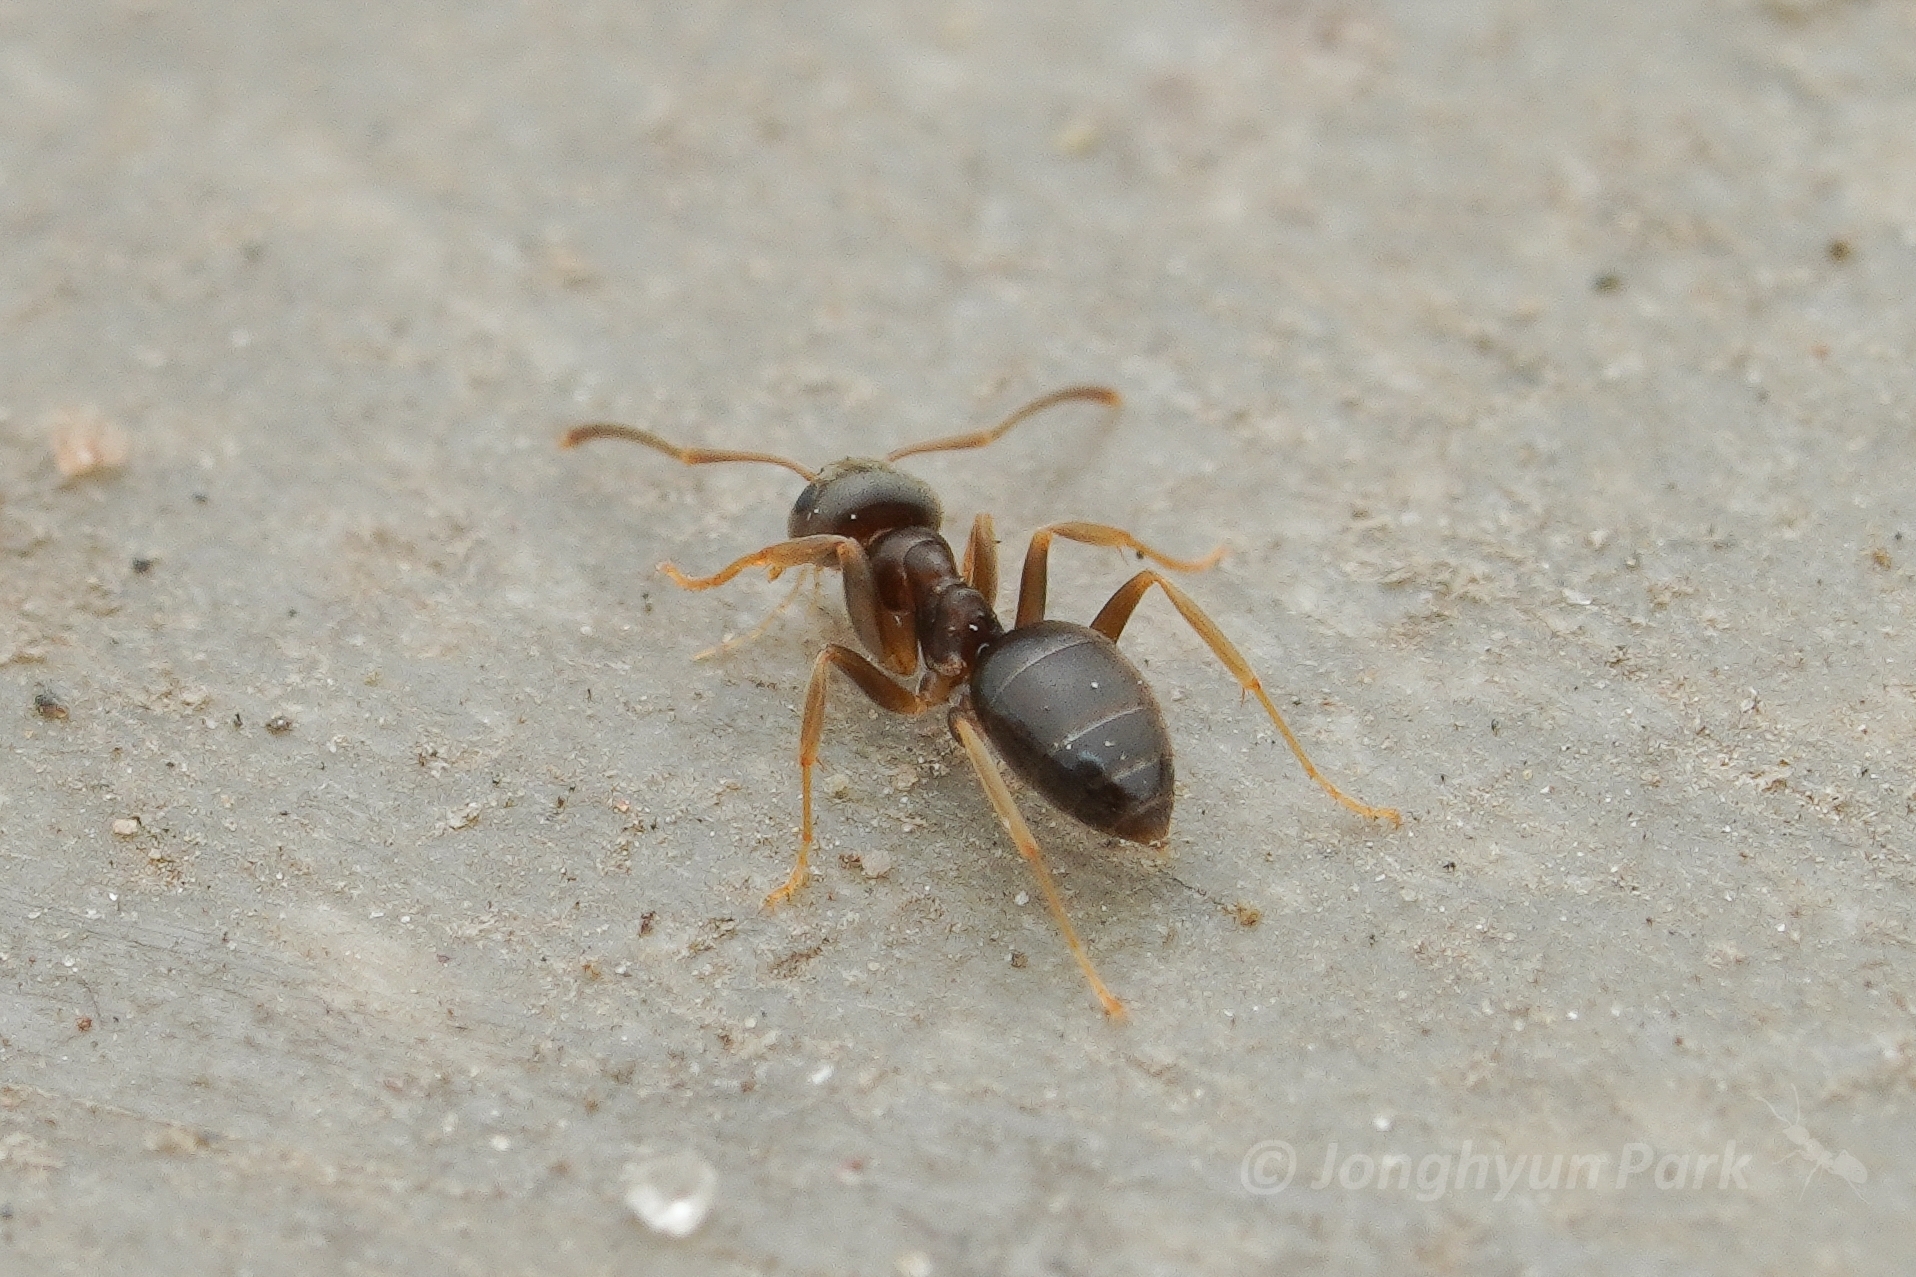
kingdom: Animalia
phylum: Arthropoda
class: Insecta
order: Hymenoptera
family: Formicidae
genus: Lasius
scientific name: Lasius americanus
